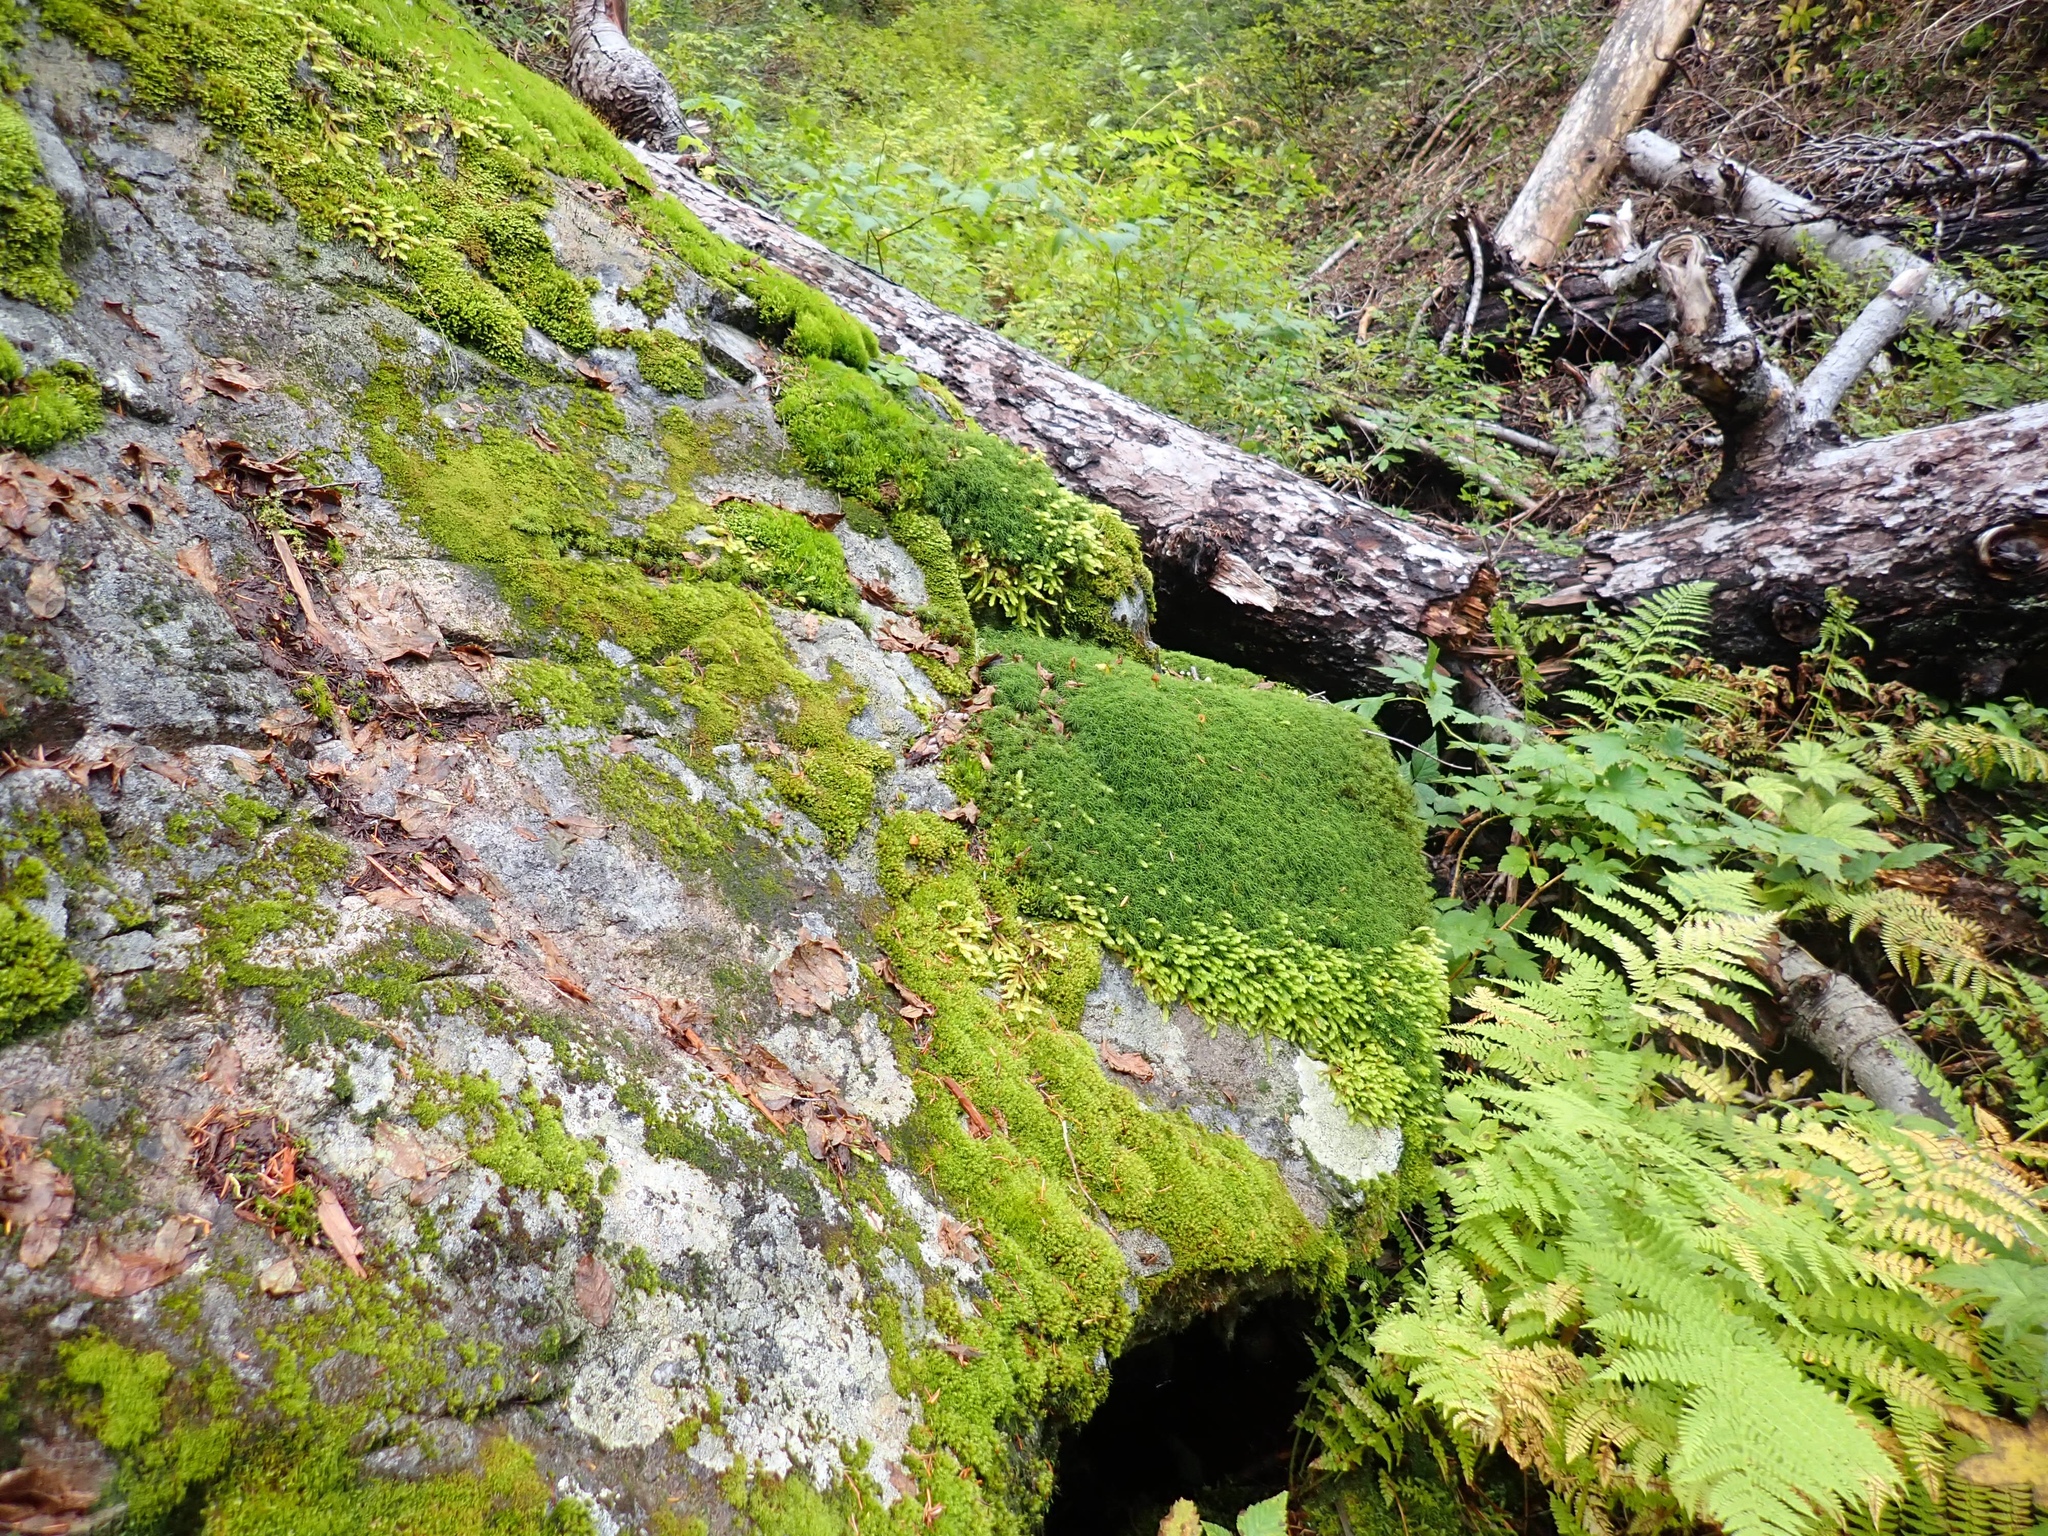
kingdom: Plantae
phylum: Bryophyta
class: Polytrichopsida
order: Polytrichales
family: Polytrichaceae
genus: Polytrichum
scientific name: Polytrichum juniperinum
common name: Juniper haircap moss
